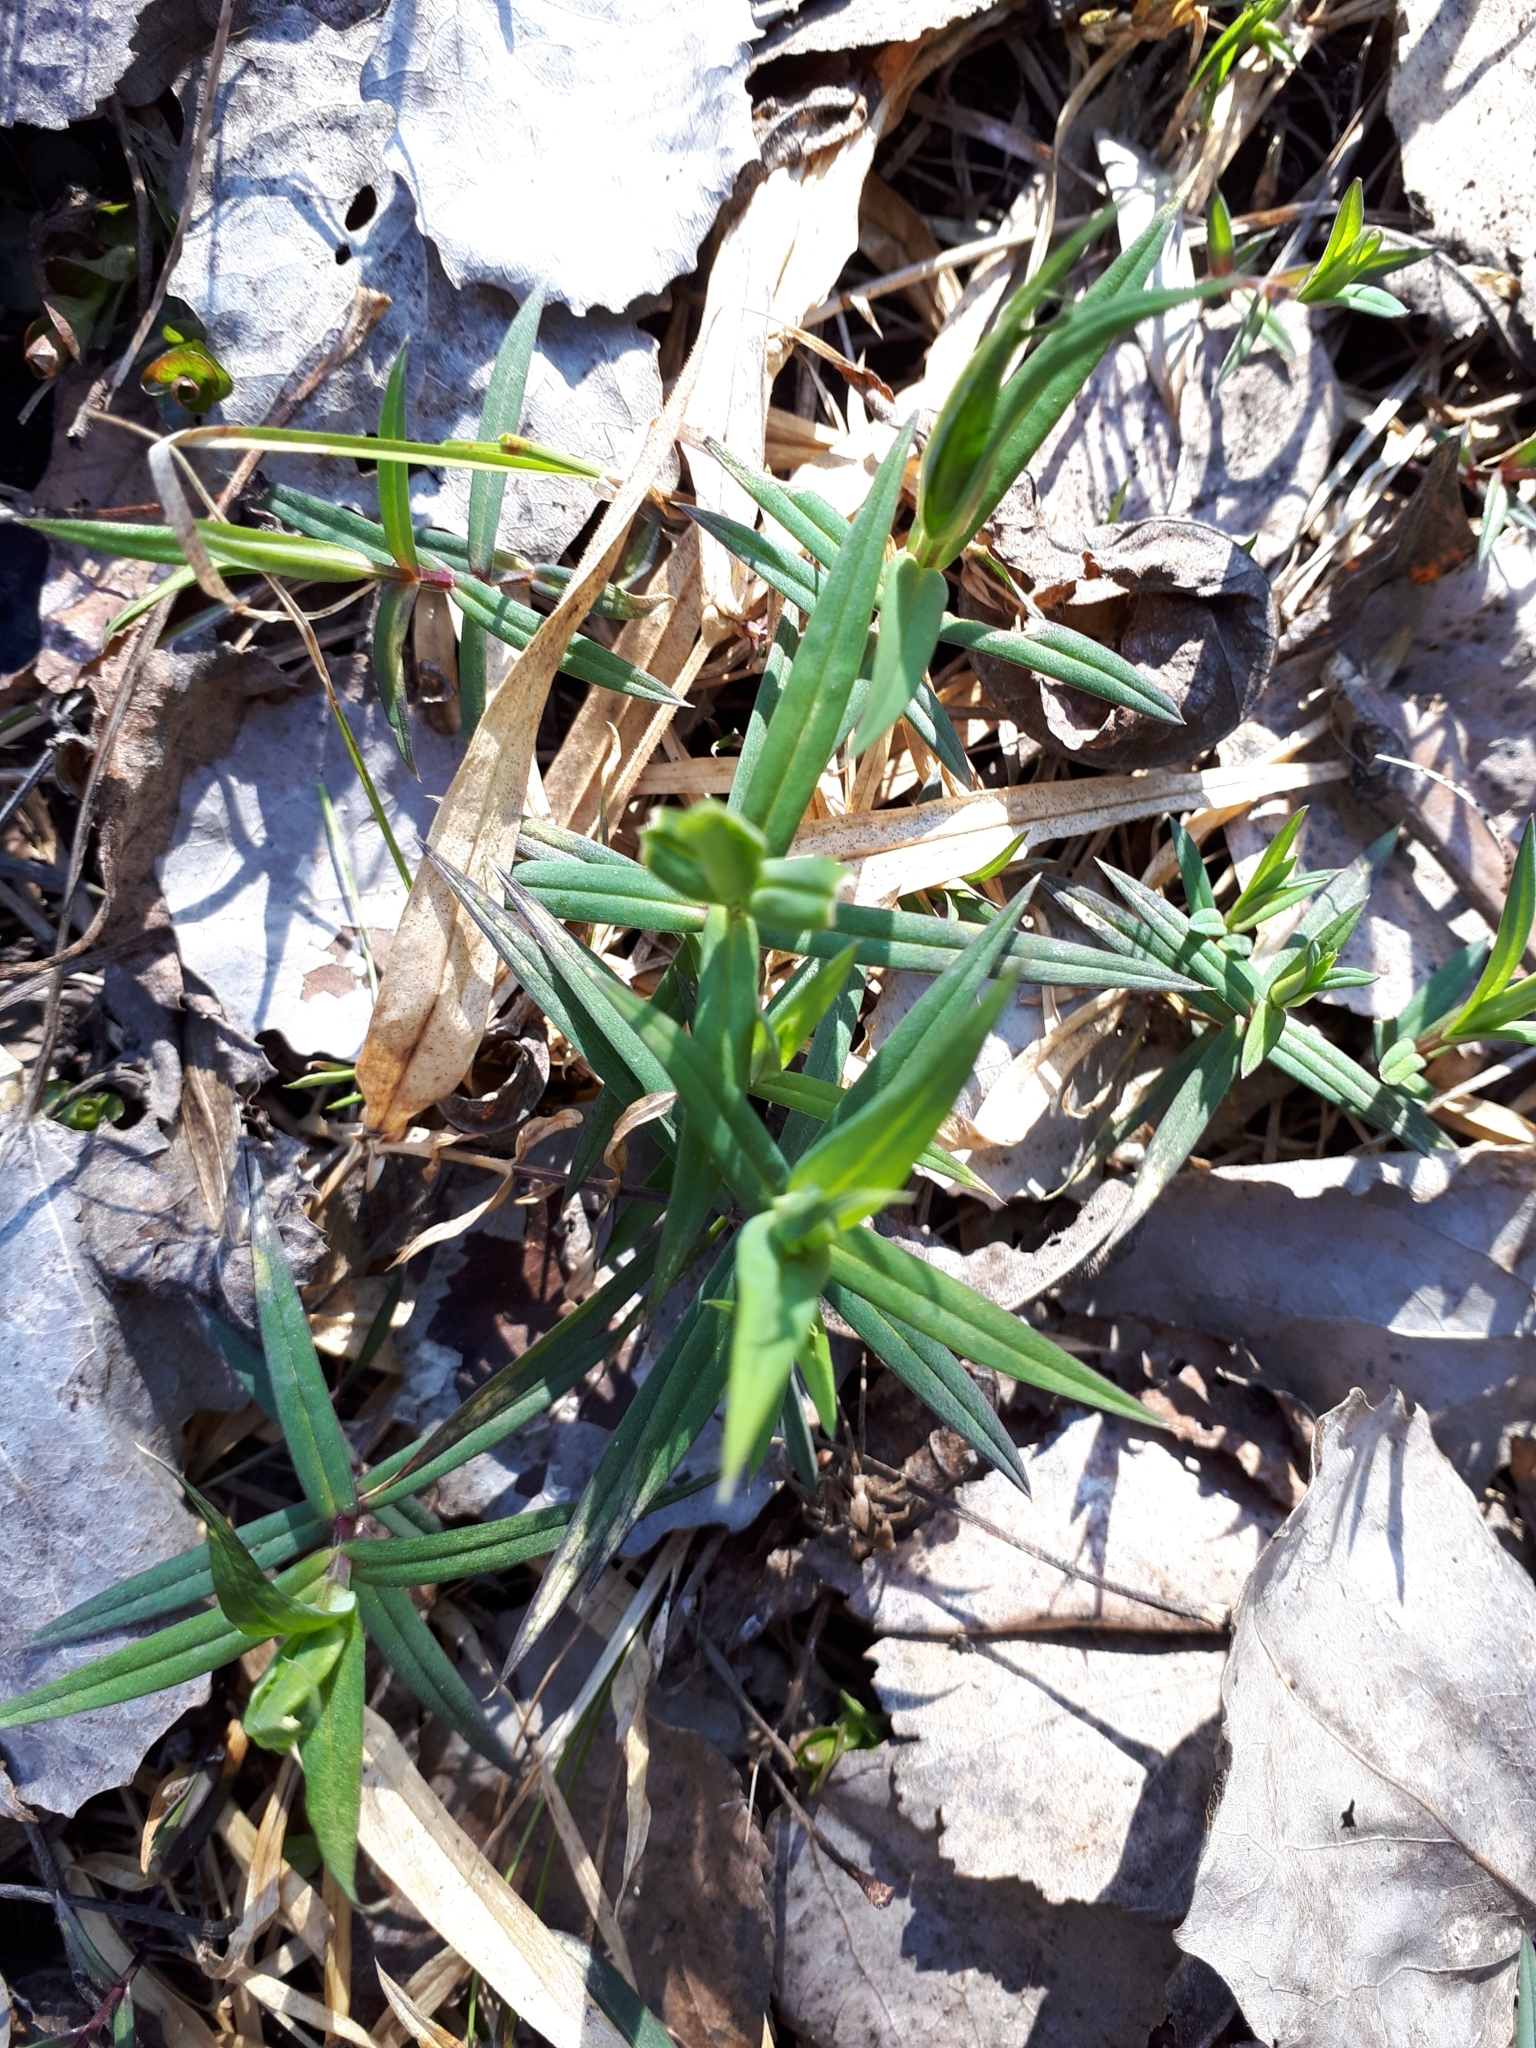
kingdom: Plantae
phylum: Tracheophyta
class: Magnoliopsida
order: Caryophyllales
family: Caryophyllaceae
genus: Rabelera
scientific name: Rabelera holostea
